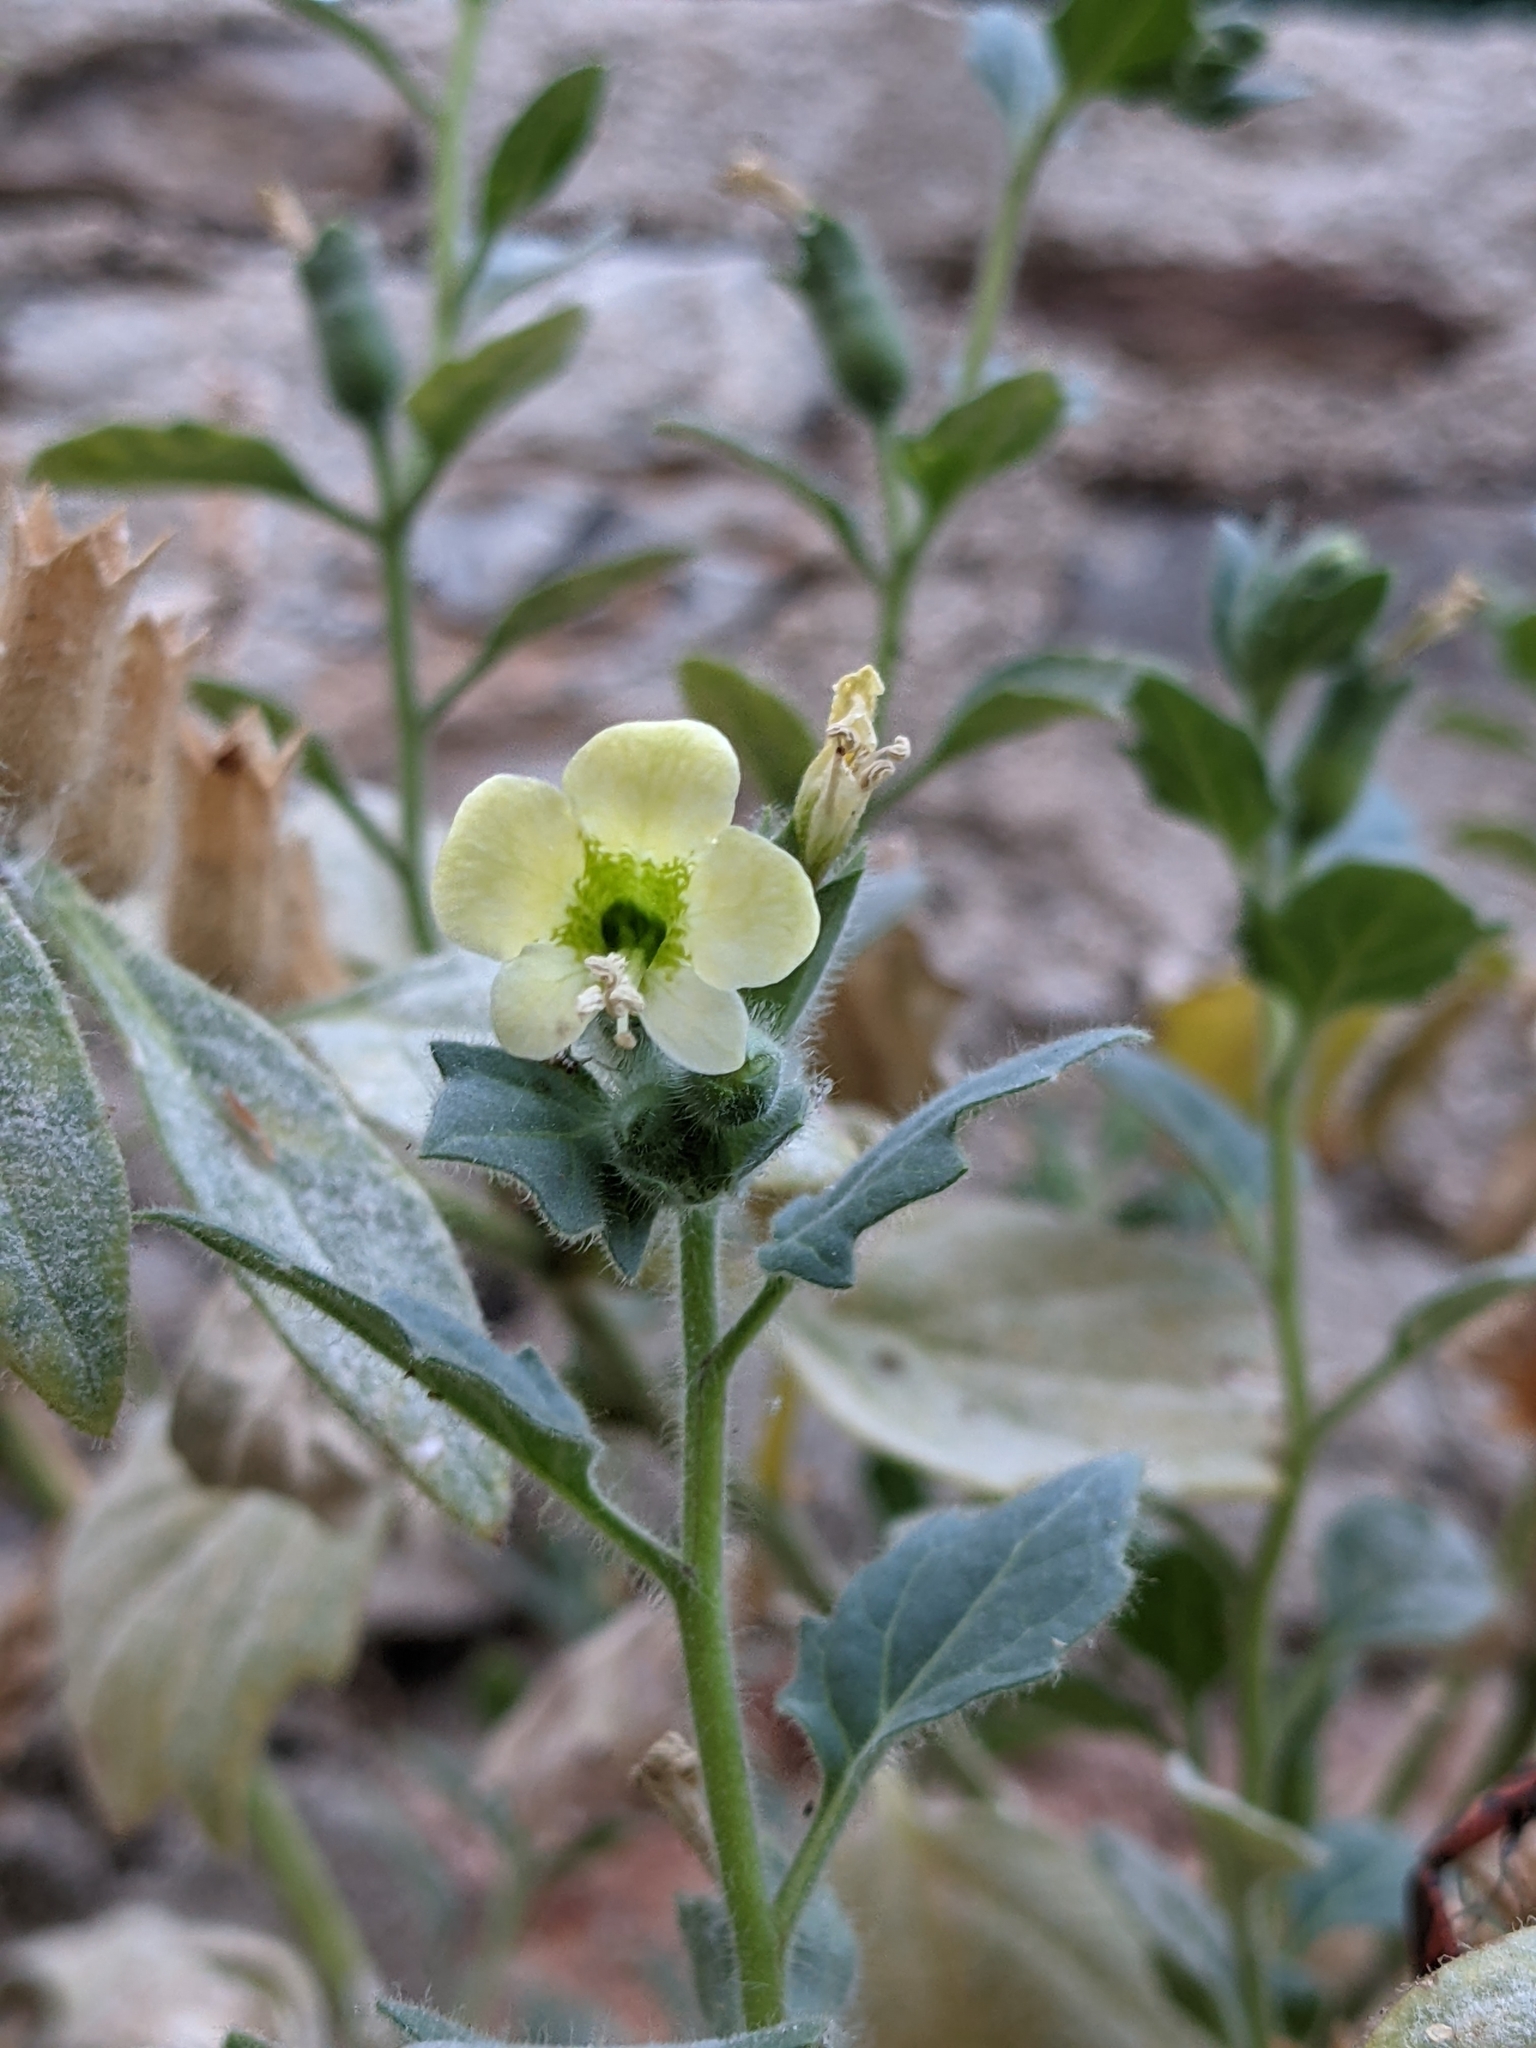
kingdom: Plantae
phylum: Tracheophyta
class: Magnoliopsida
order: Solanales
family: Solanaceae
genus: Hyoscyamus
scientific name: Hyoscyamus albus
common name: White henbane
